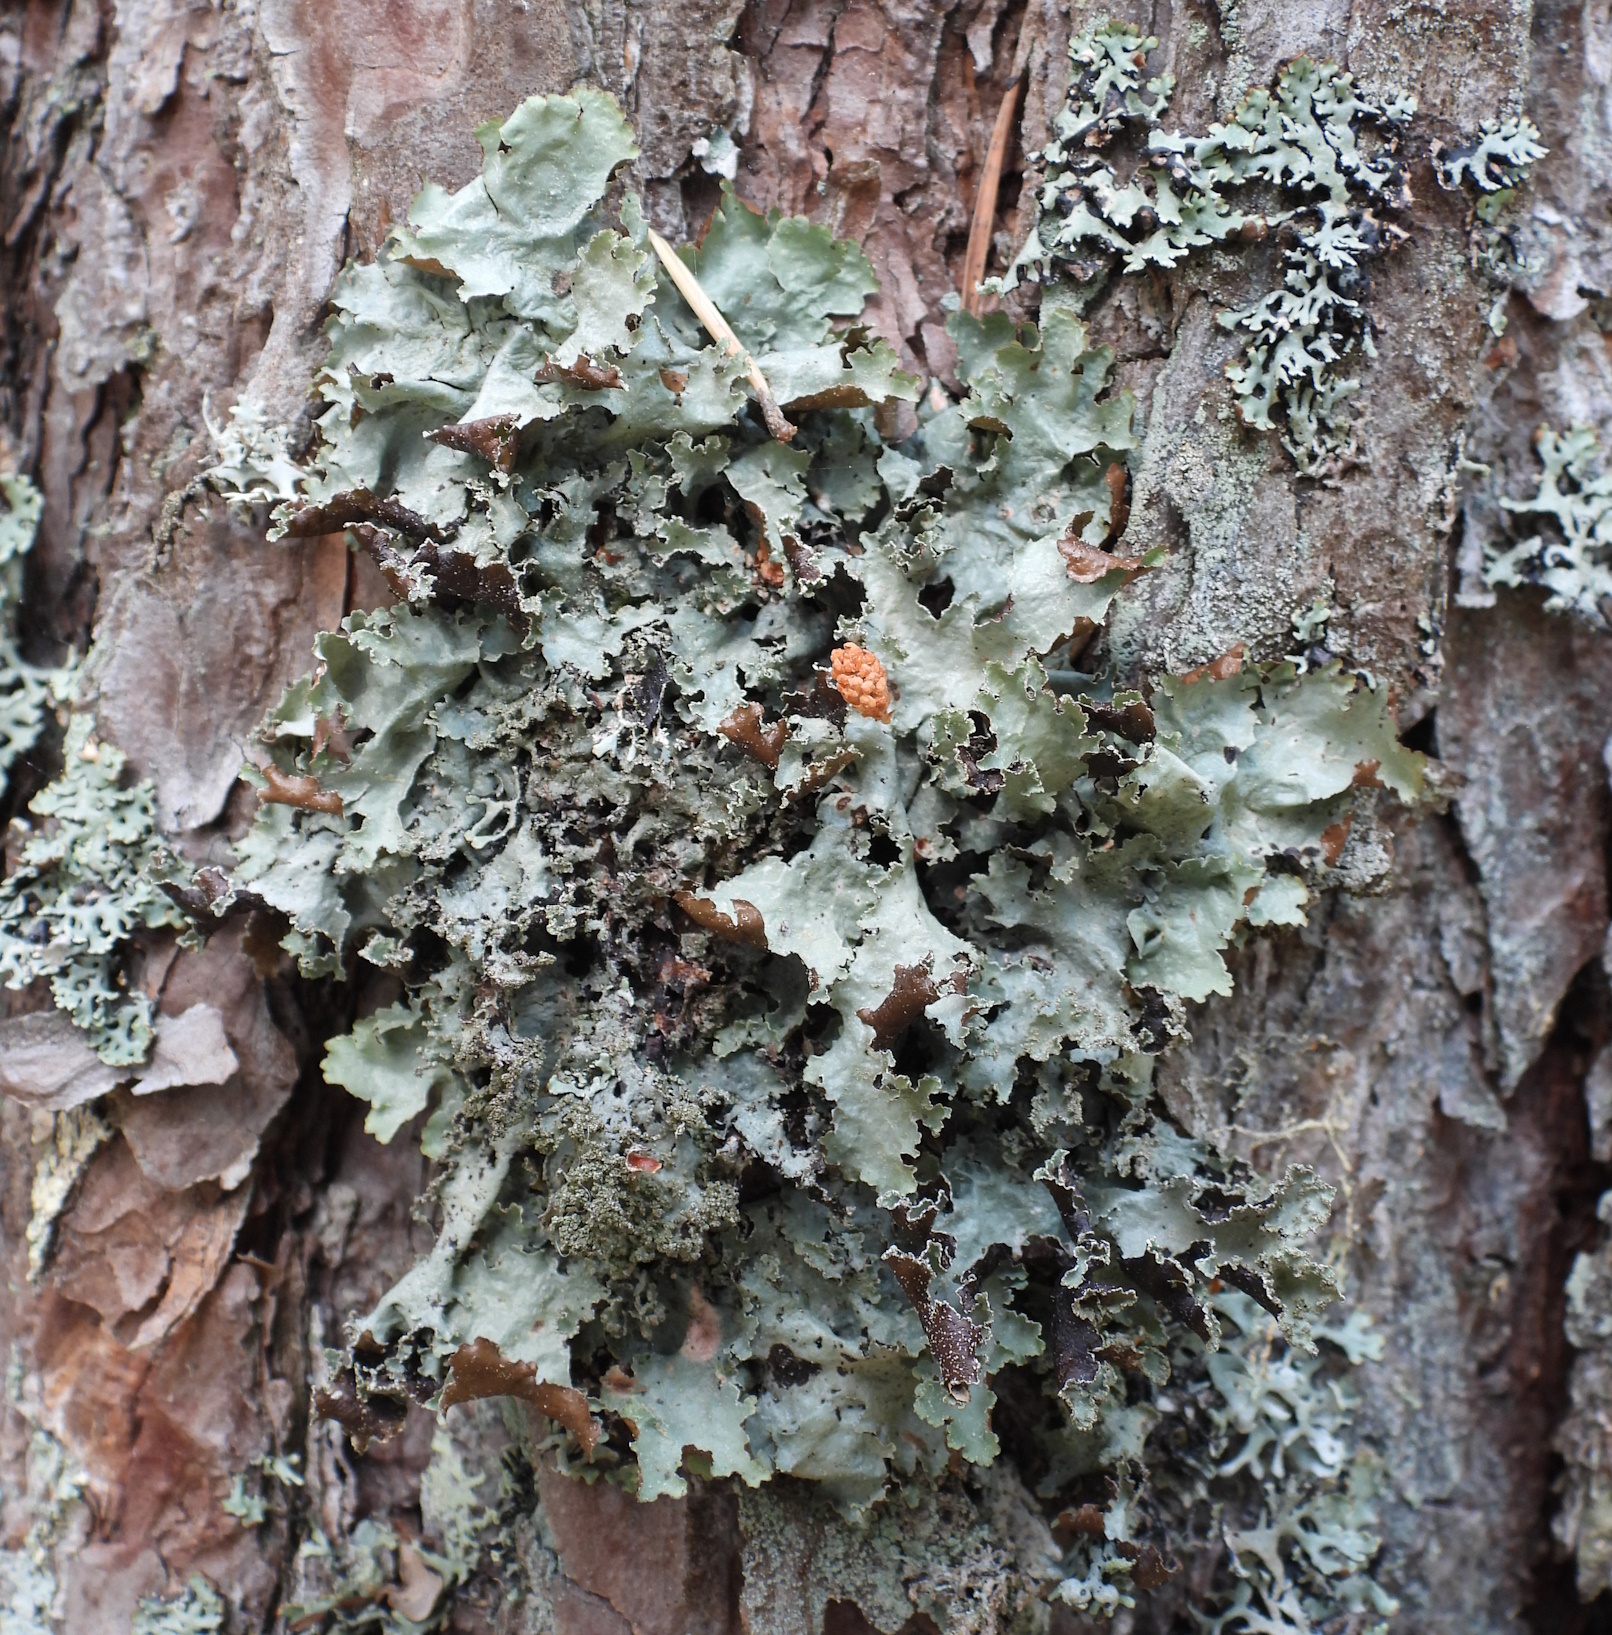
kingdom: Fungi
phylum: Ascomycota
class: Lecanoromycetes
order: Lecanorales
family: Parmeliaceae
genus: Platismatia
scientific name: Platismatia glauca
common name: Varied rag lichen
